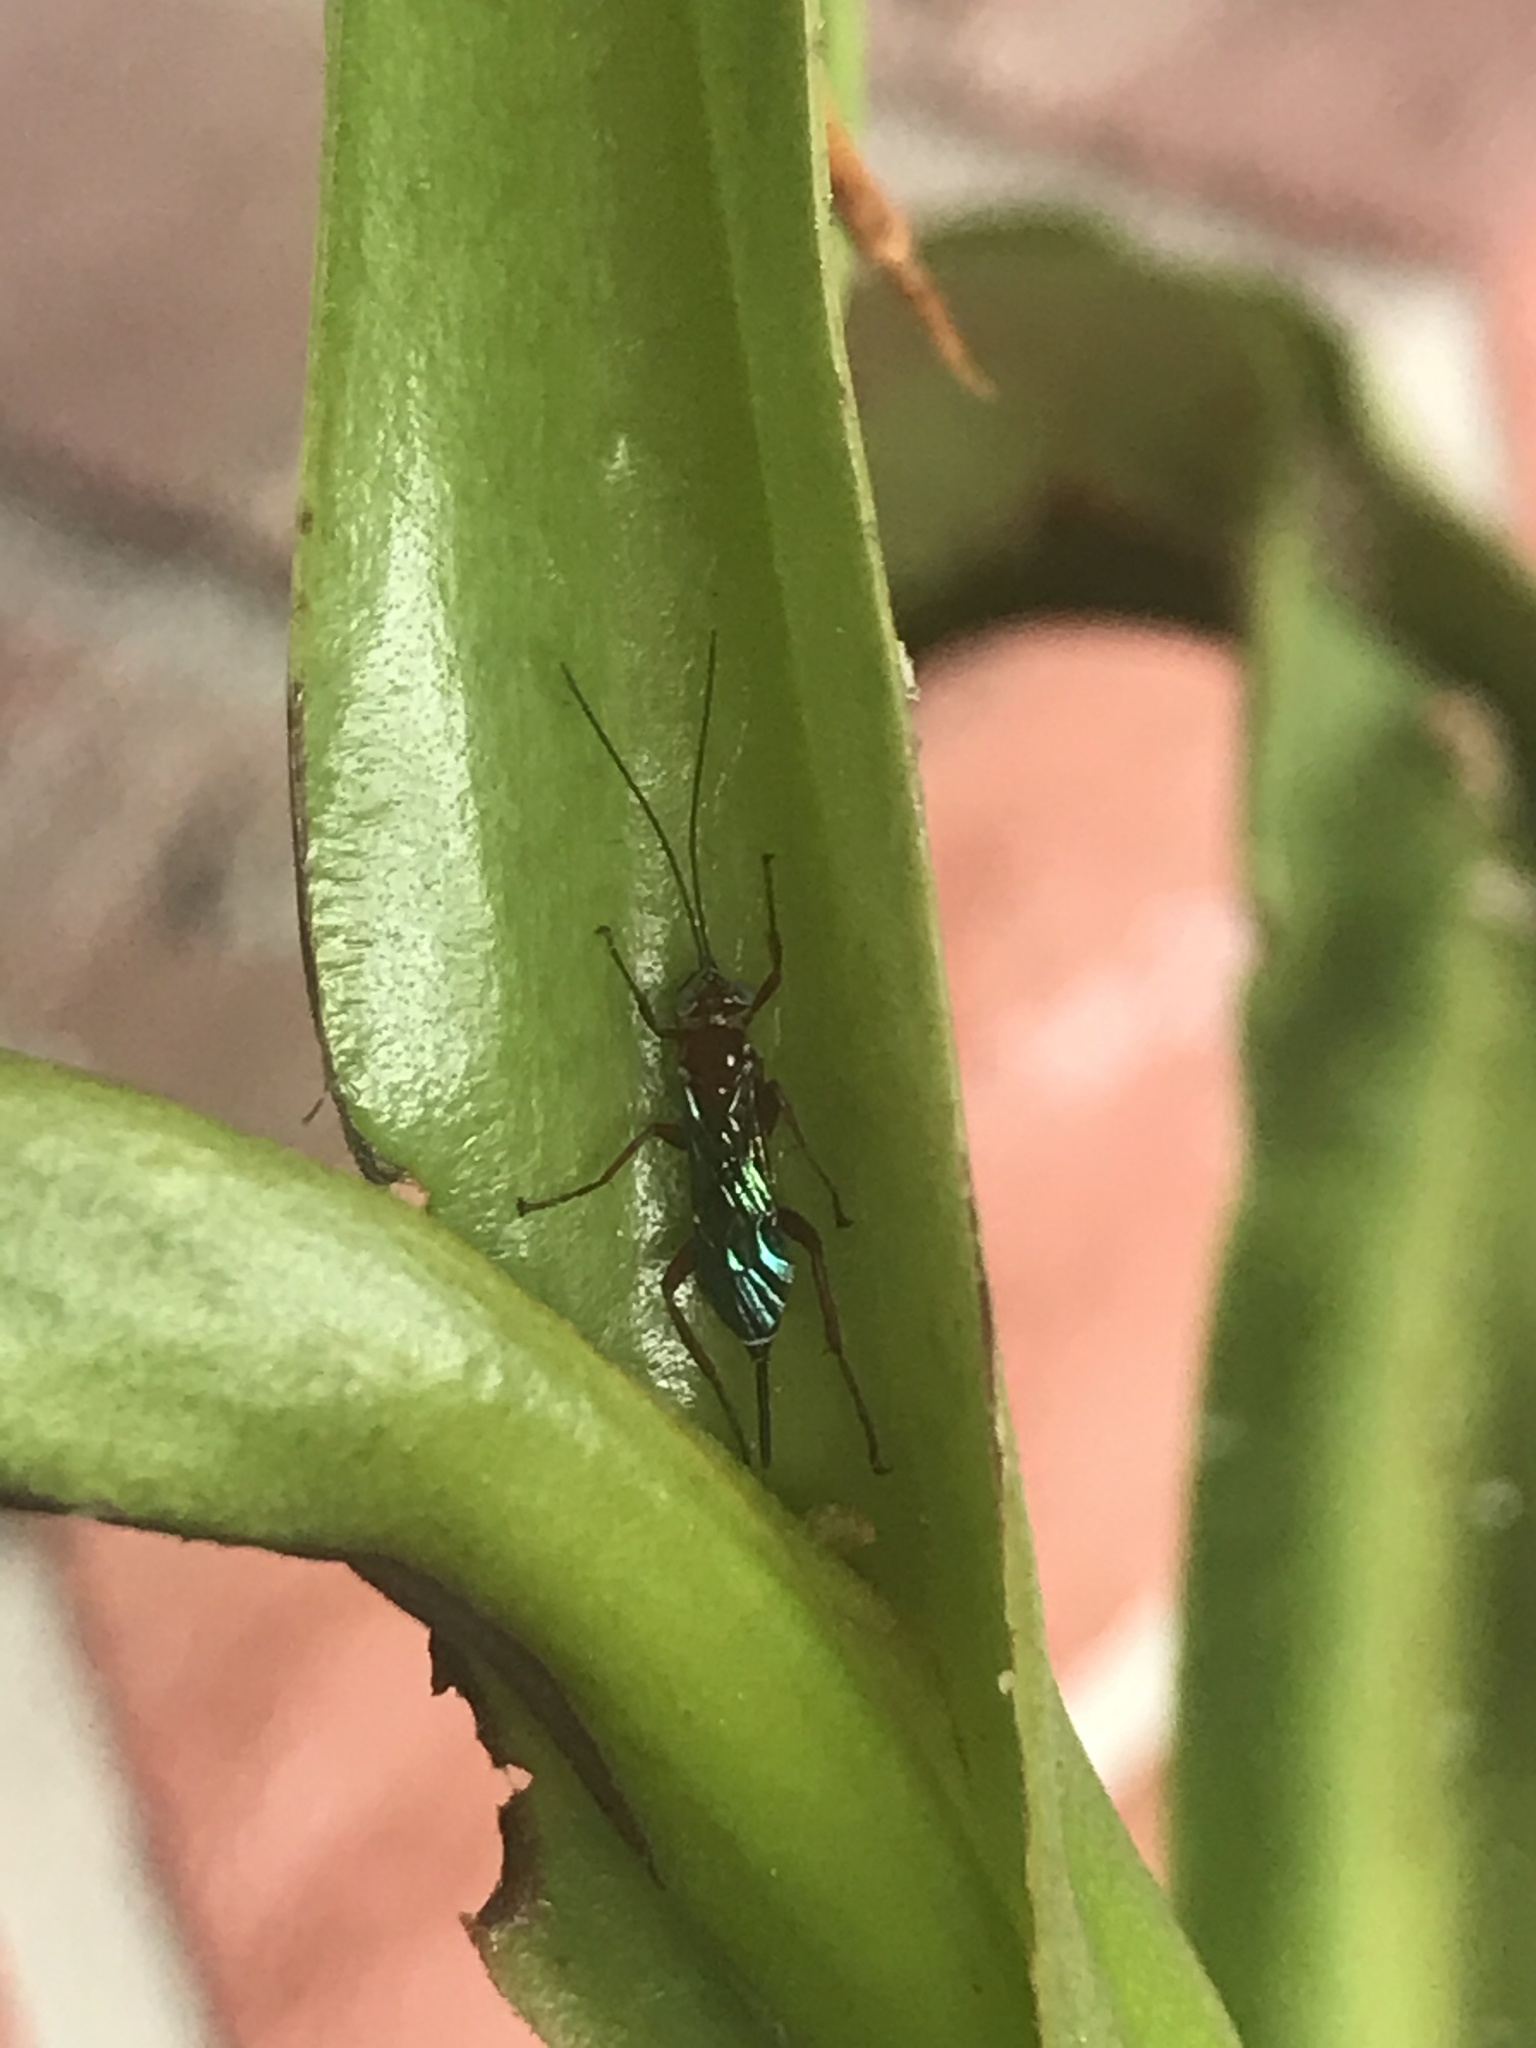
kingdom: Animalia
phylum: Arthropoda
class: Insecta
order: Hymenoptera
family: Ichneumonidae
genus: Pimpla
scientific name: Pimpla marginella
